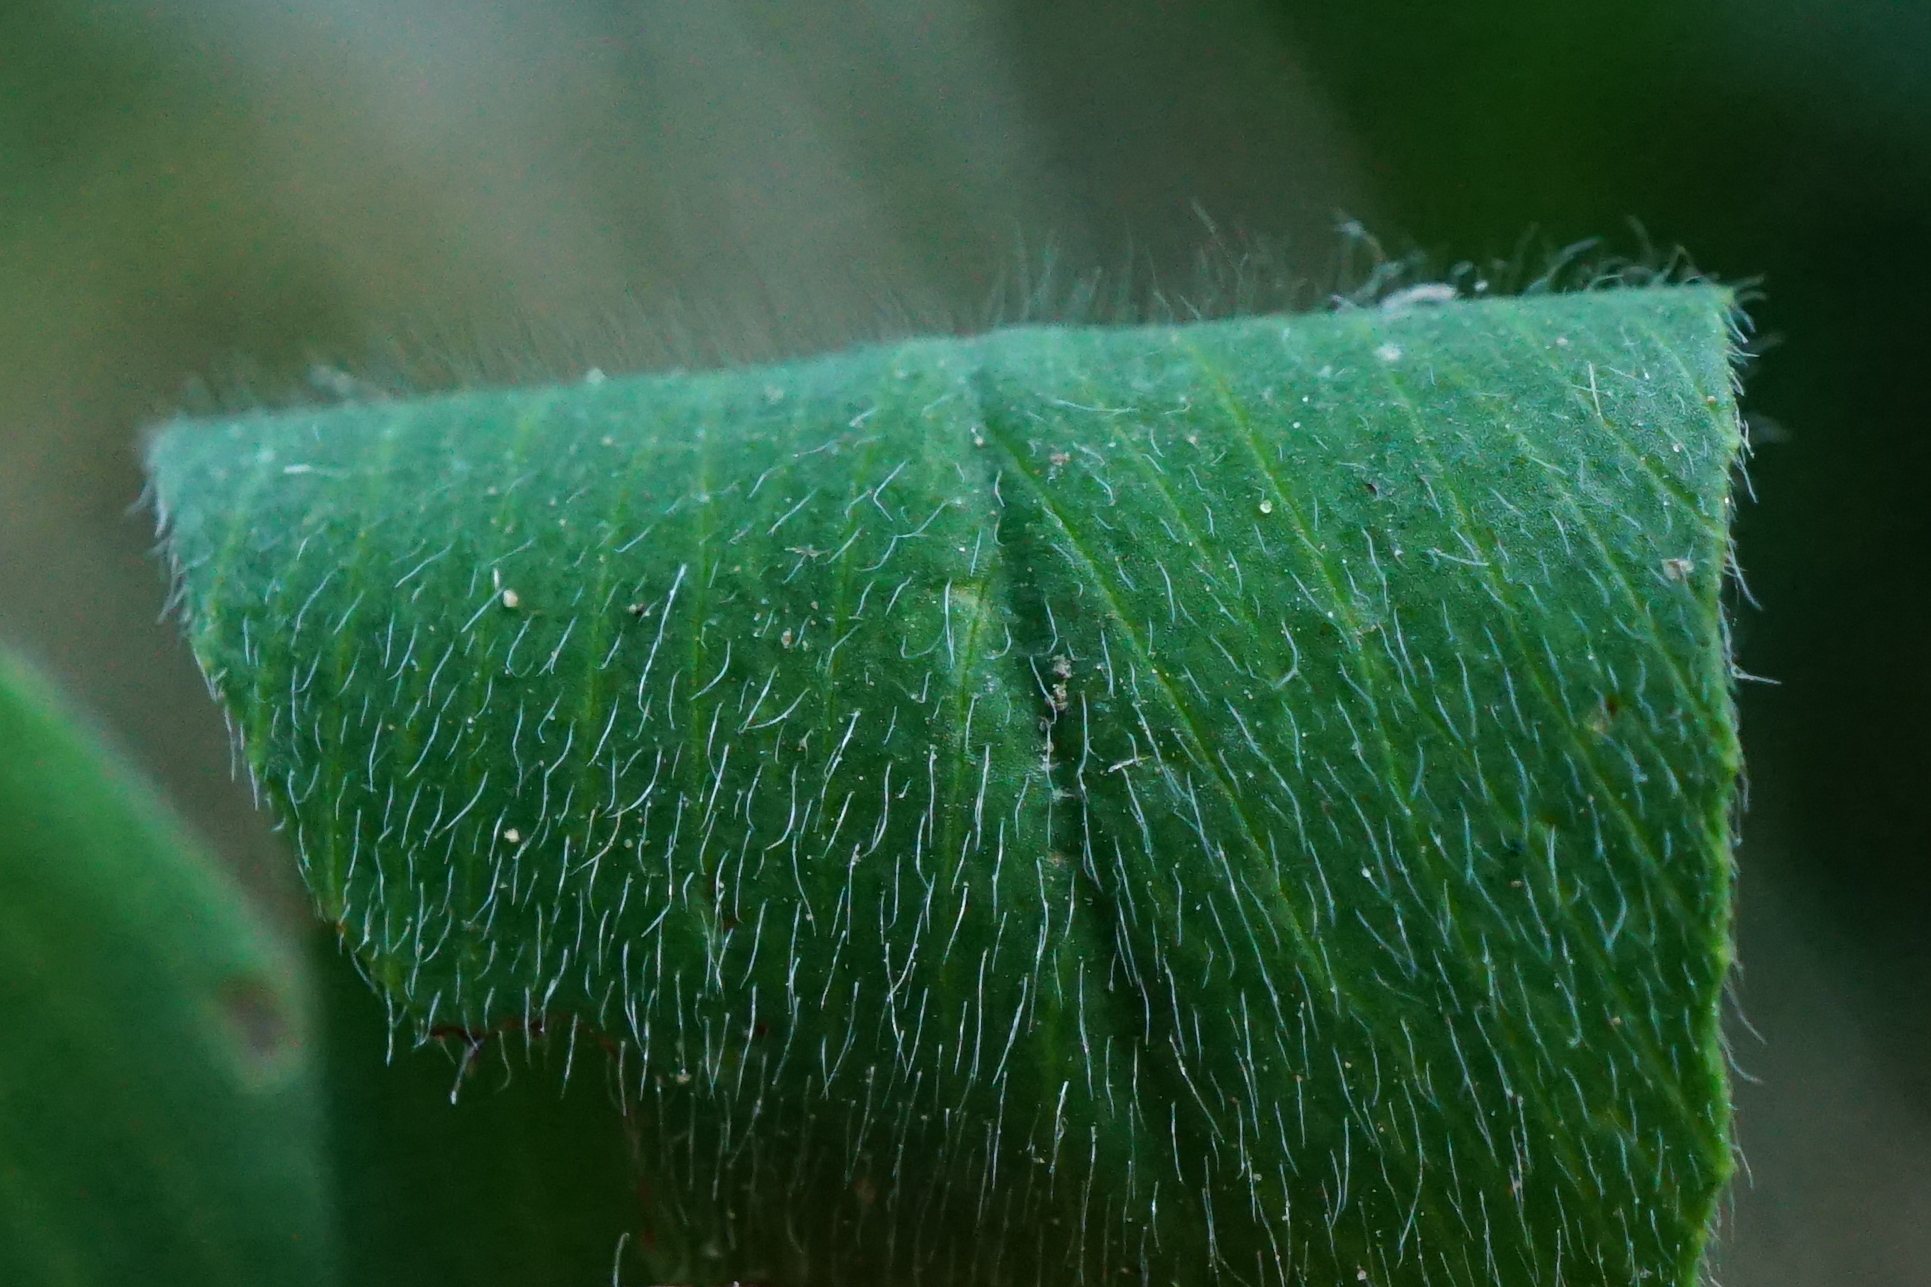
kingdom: Plantae
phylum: Tracheophyta
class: Magnoliopsida
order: Fabales
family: Fabaceae
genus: Trifolium
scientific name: Trifolium alexandrinum
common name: Egyptian clover
